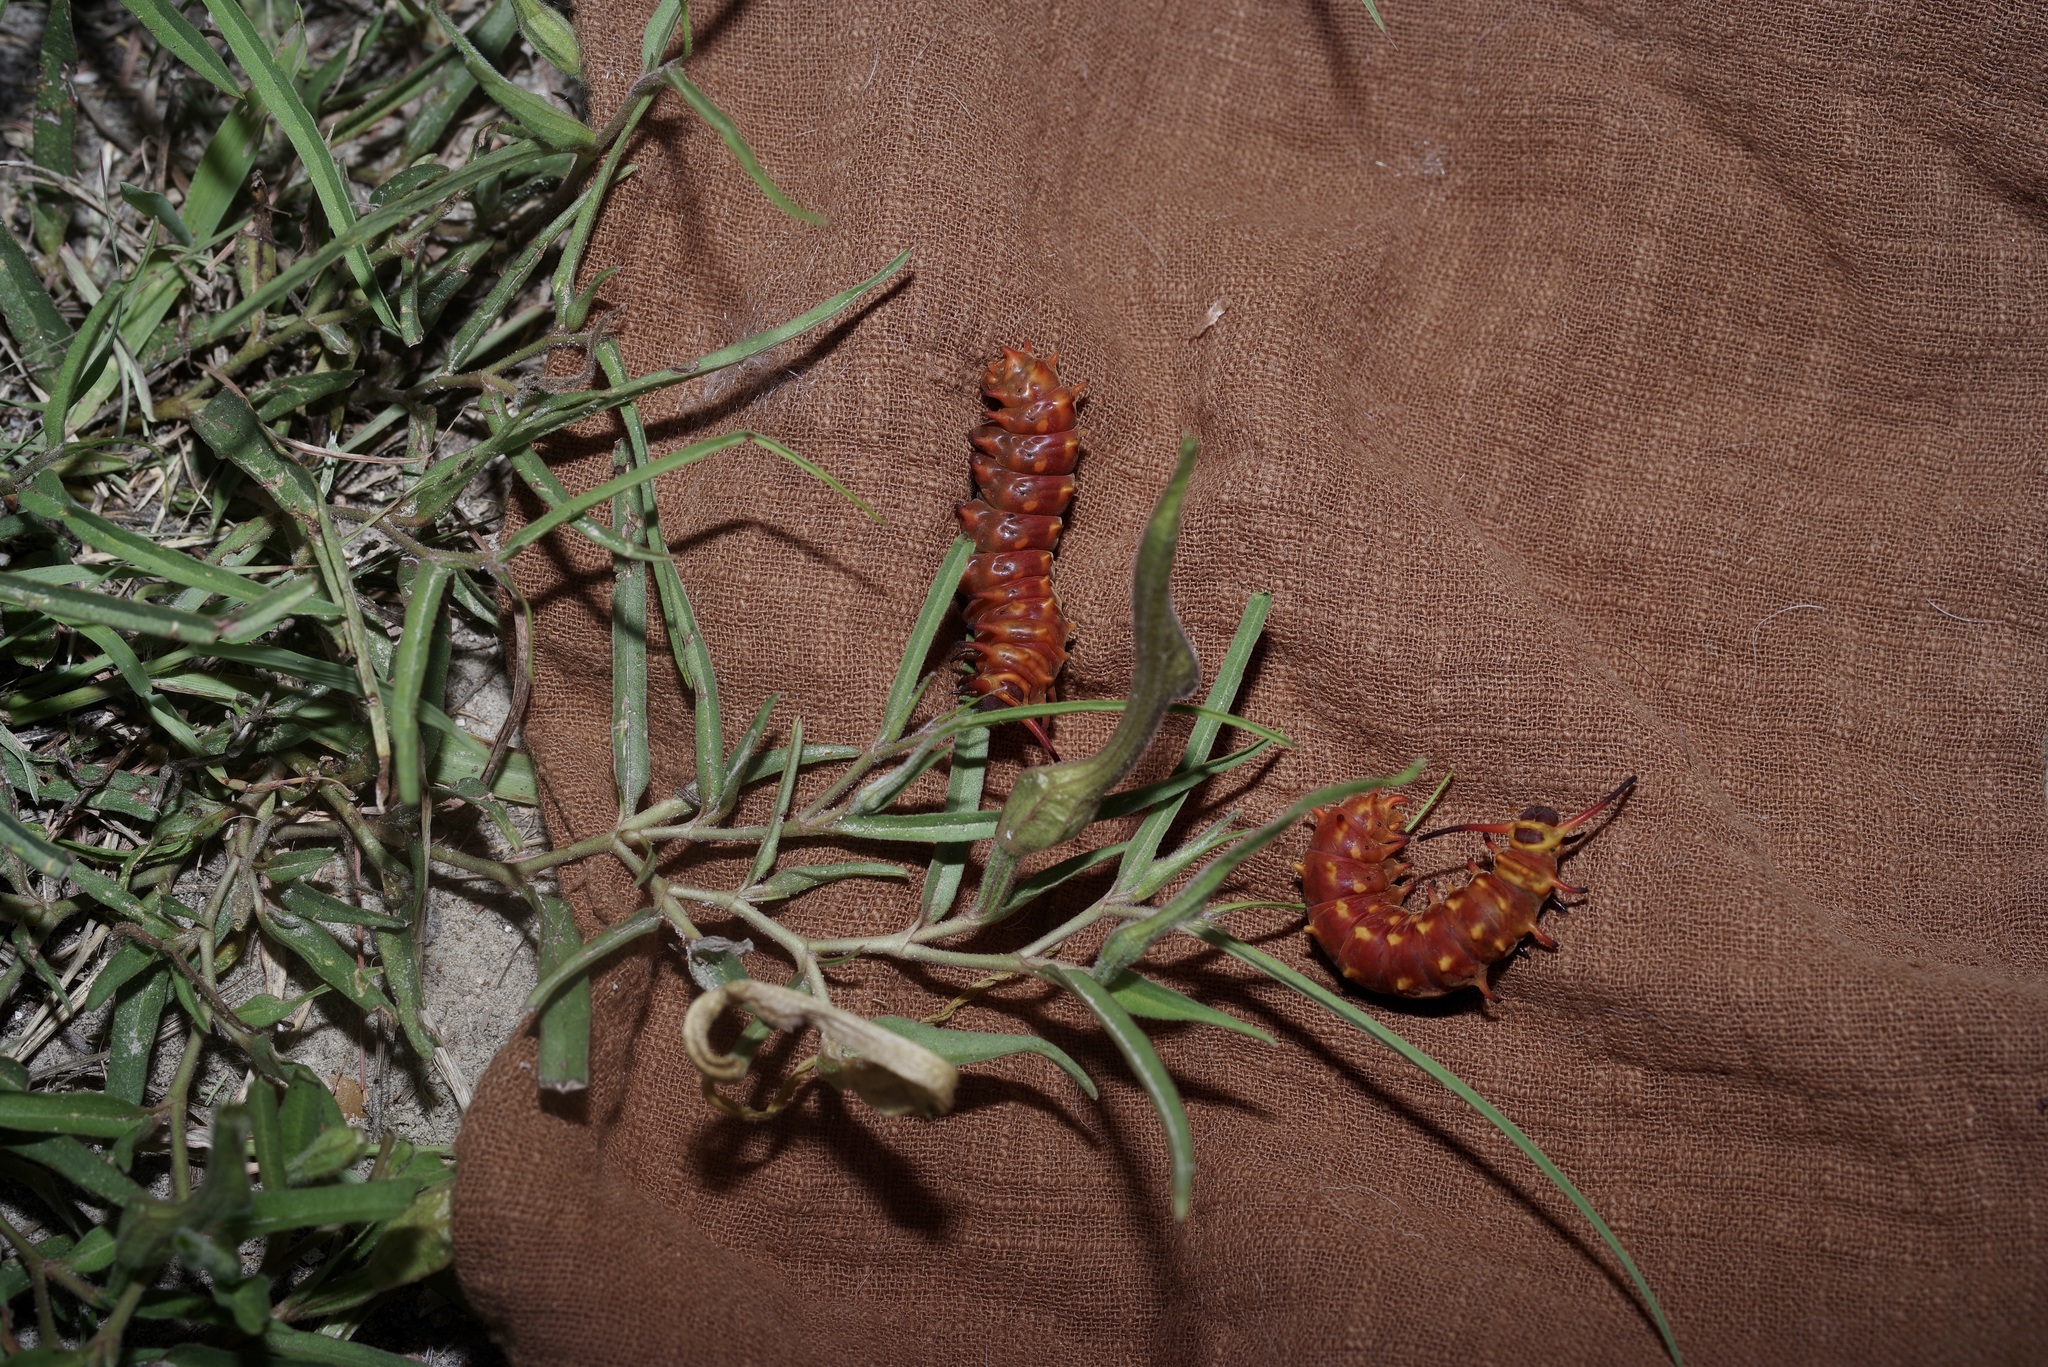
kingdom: Animalia
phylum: Arthropoda
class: Insecta
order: Lepidoptera
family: Papilionidae
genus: Battus
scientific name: Battus philenor
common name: Pipevine swallowtail
